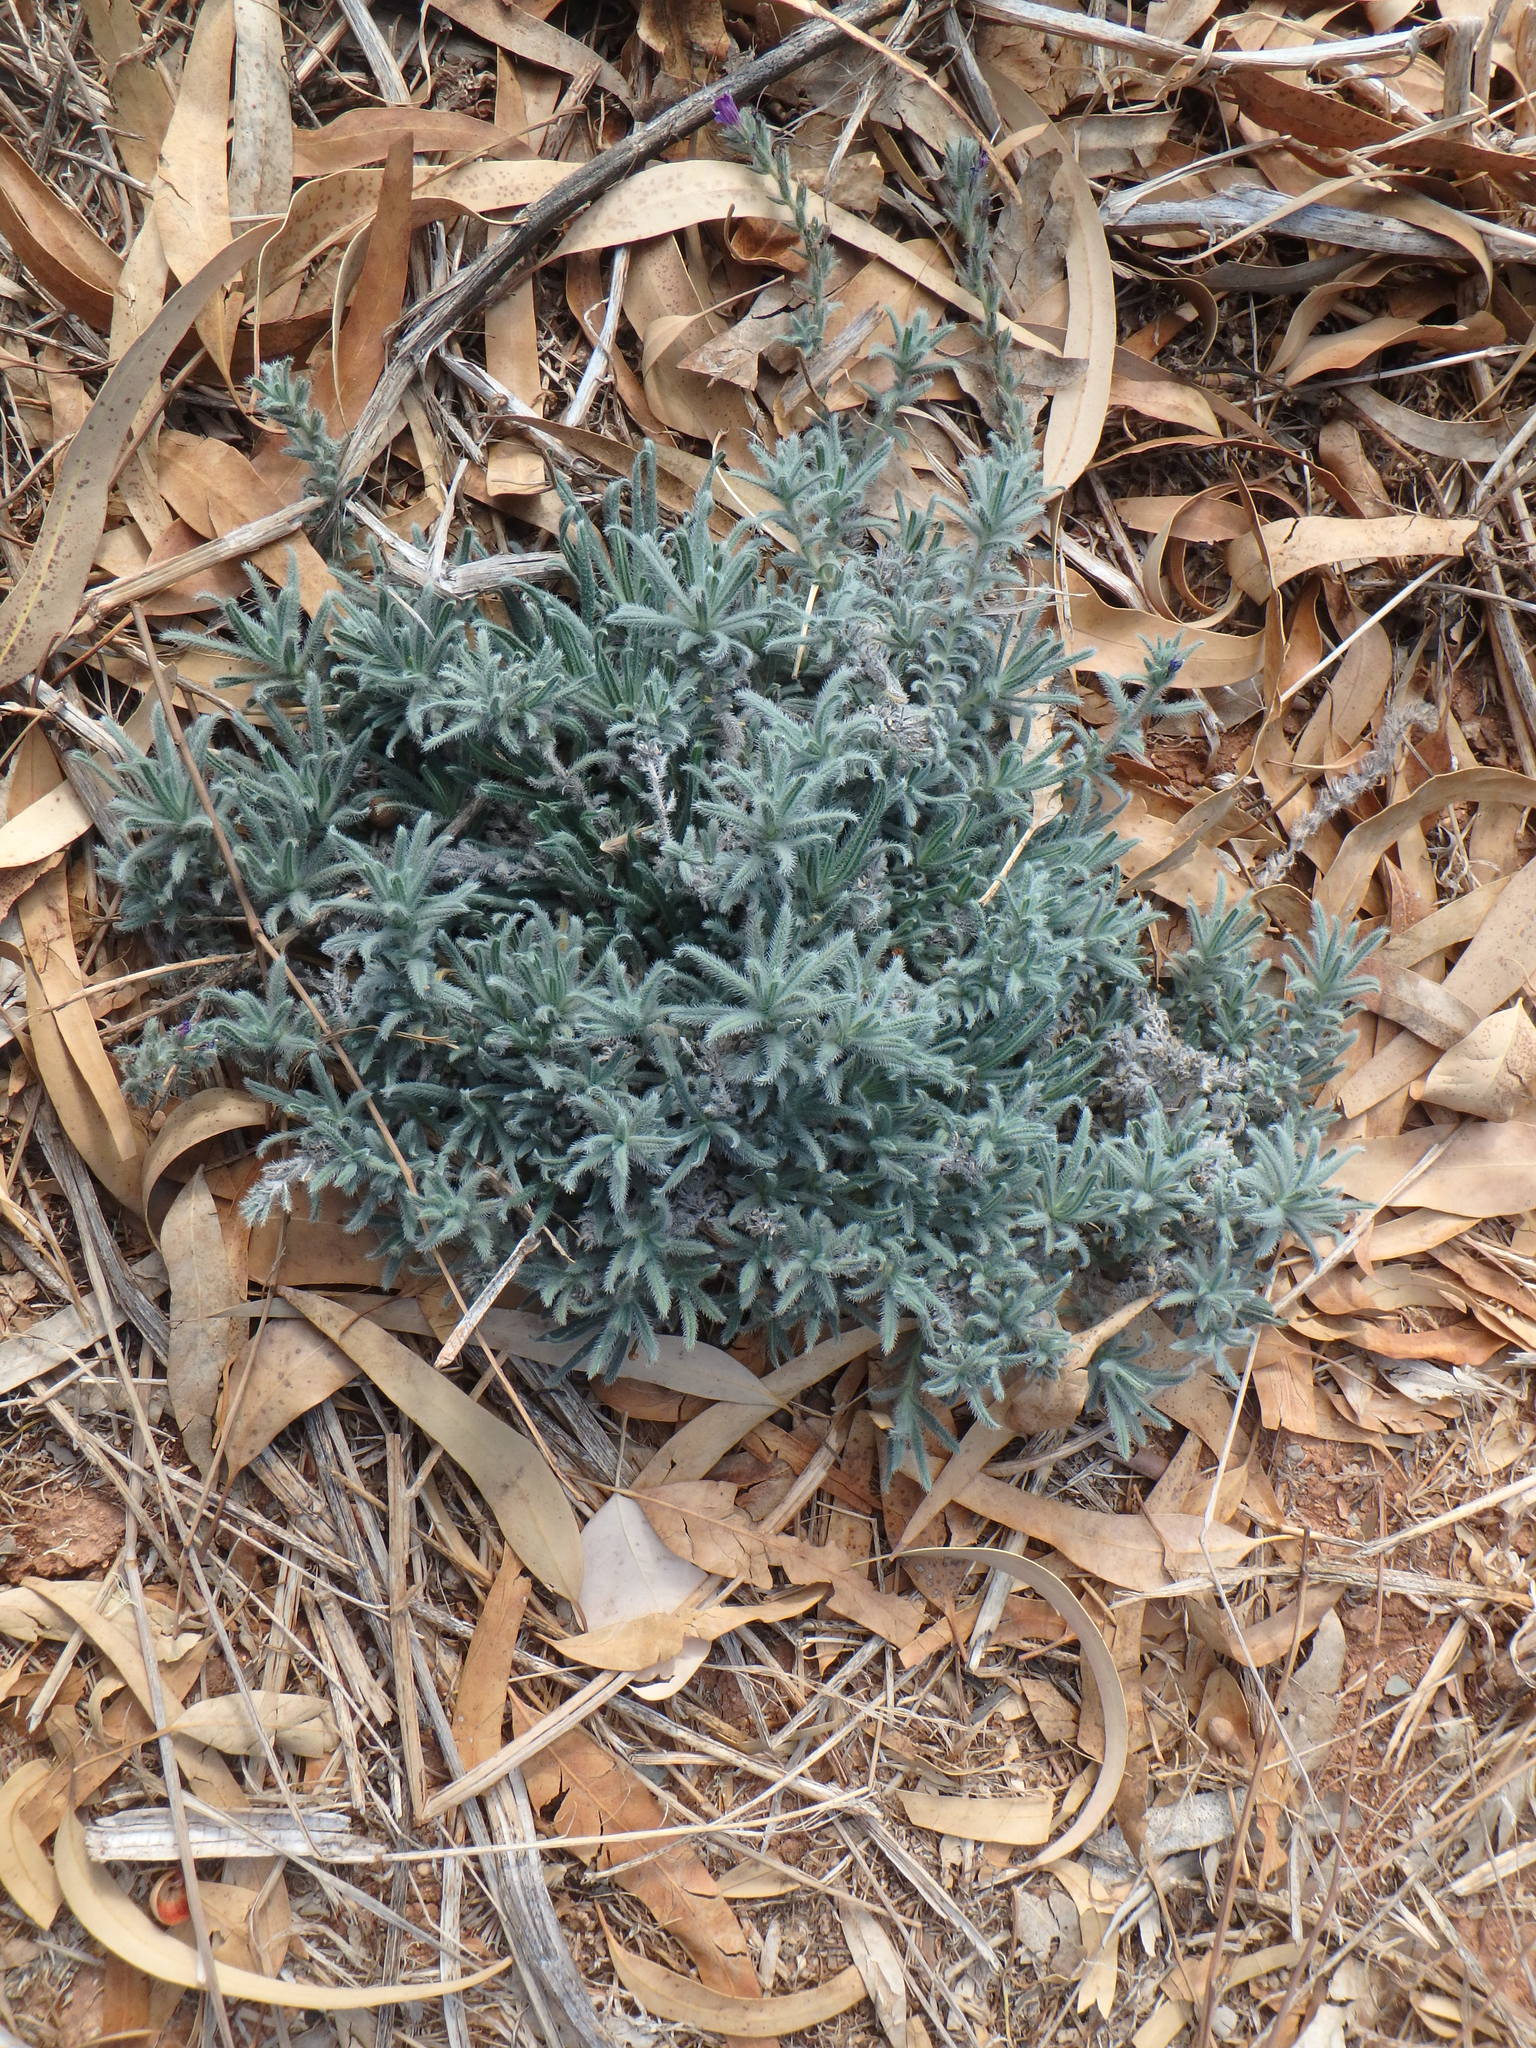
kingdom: Plantae
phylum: Tracheophyta
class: Magnoliopsida
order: Boraginales
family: Boraginaceae
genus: Echium
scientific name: Echium angustifolium
